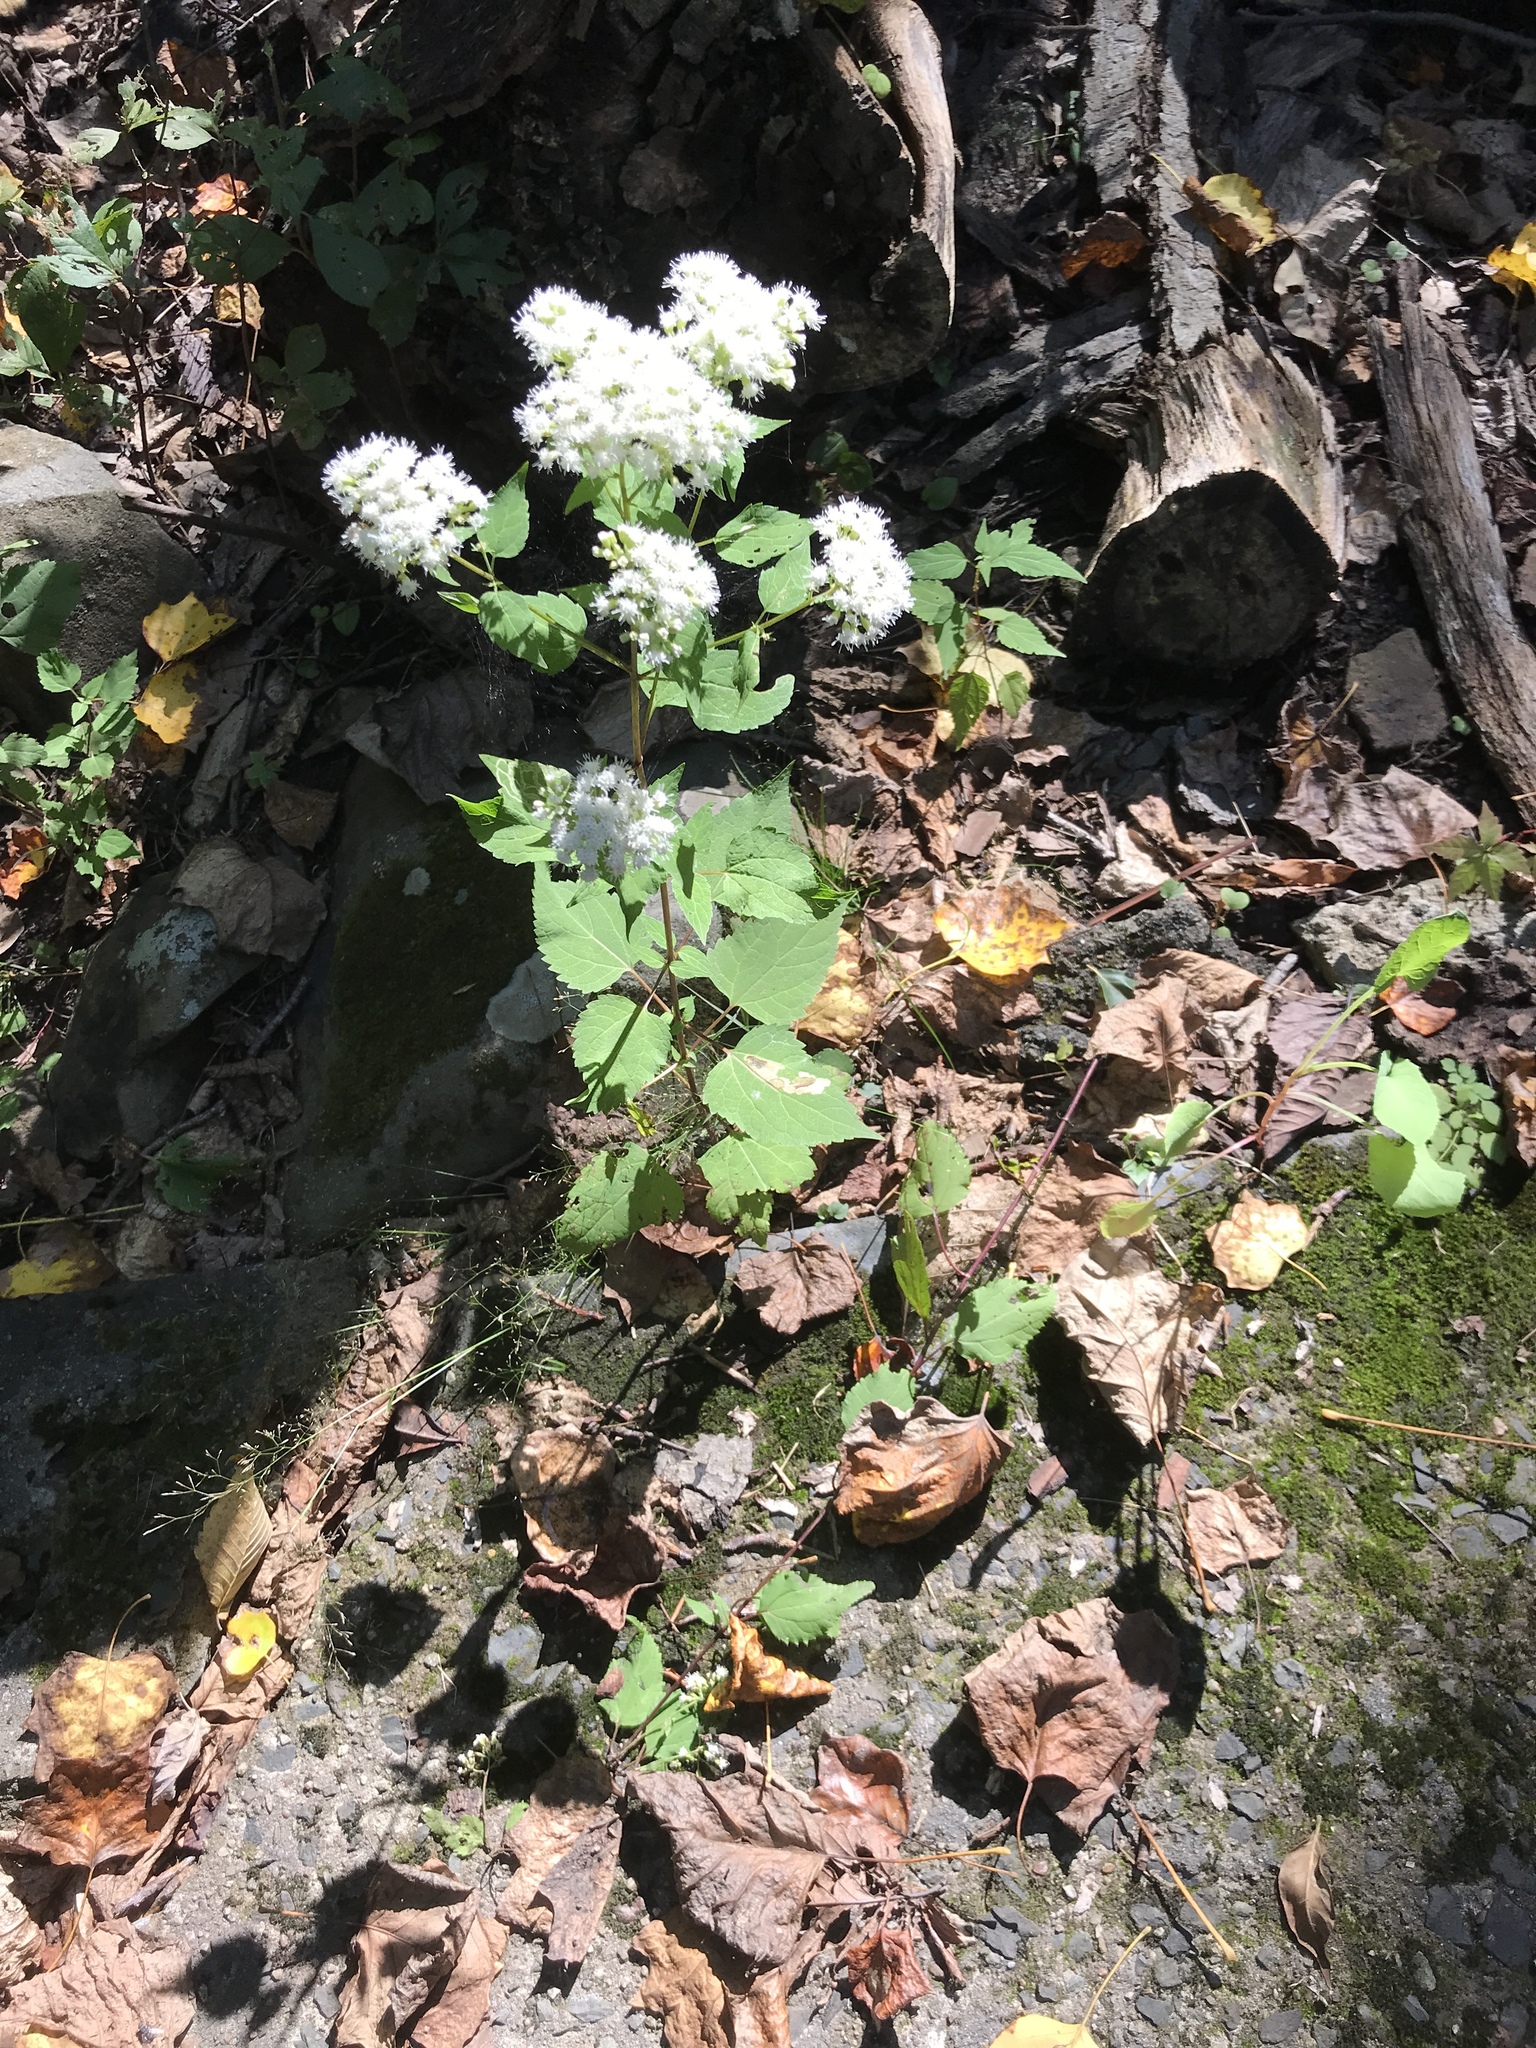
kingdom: Plantae
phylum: Tracheophyta
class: Magnoliopsida
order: Asterales
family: Asteraceae
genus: Ageratina
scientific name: Ageratina altissima
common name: White snakeroot
